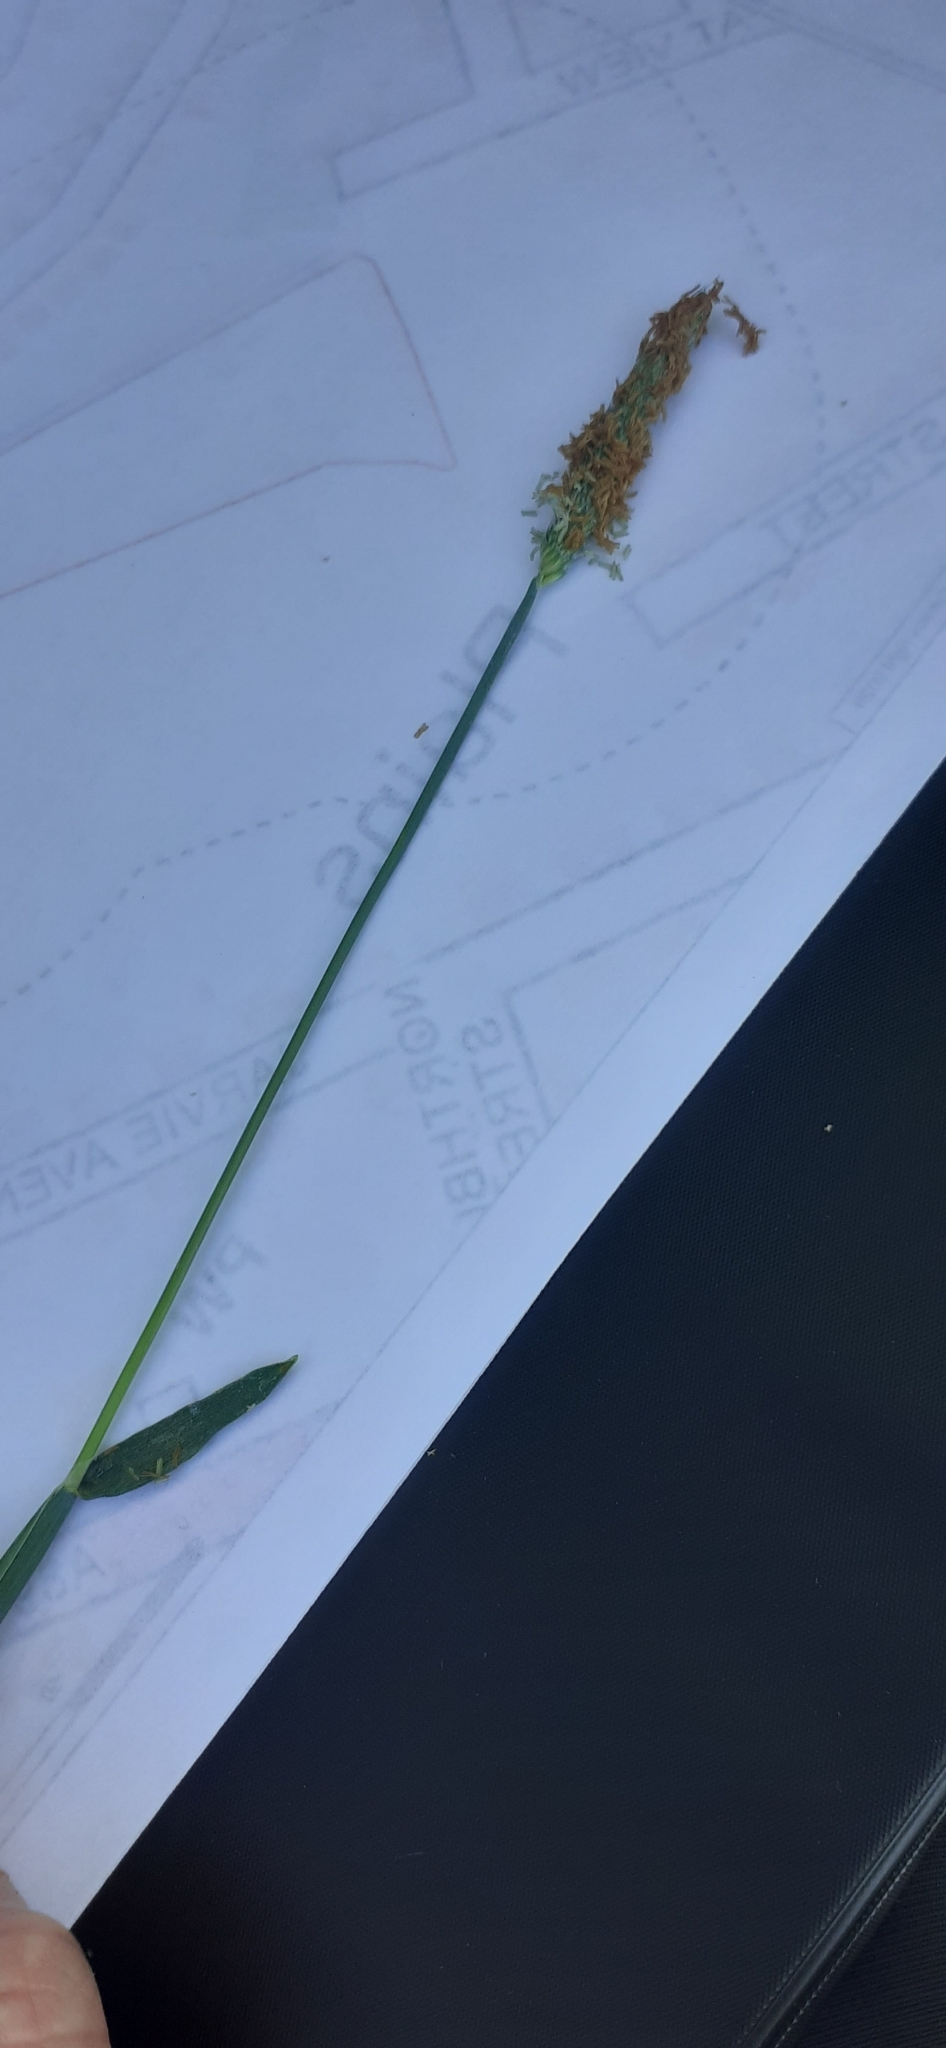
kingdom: Plantae
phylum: Tracheophyta
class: Liliopsida
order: Poales
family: Poaceae
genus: Alopecurus
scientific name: Alopecurus pratensis
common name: Meadow foxtail
